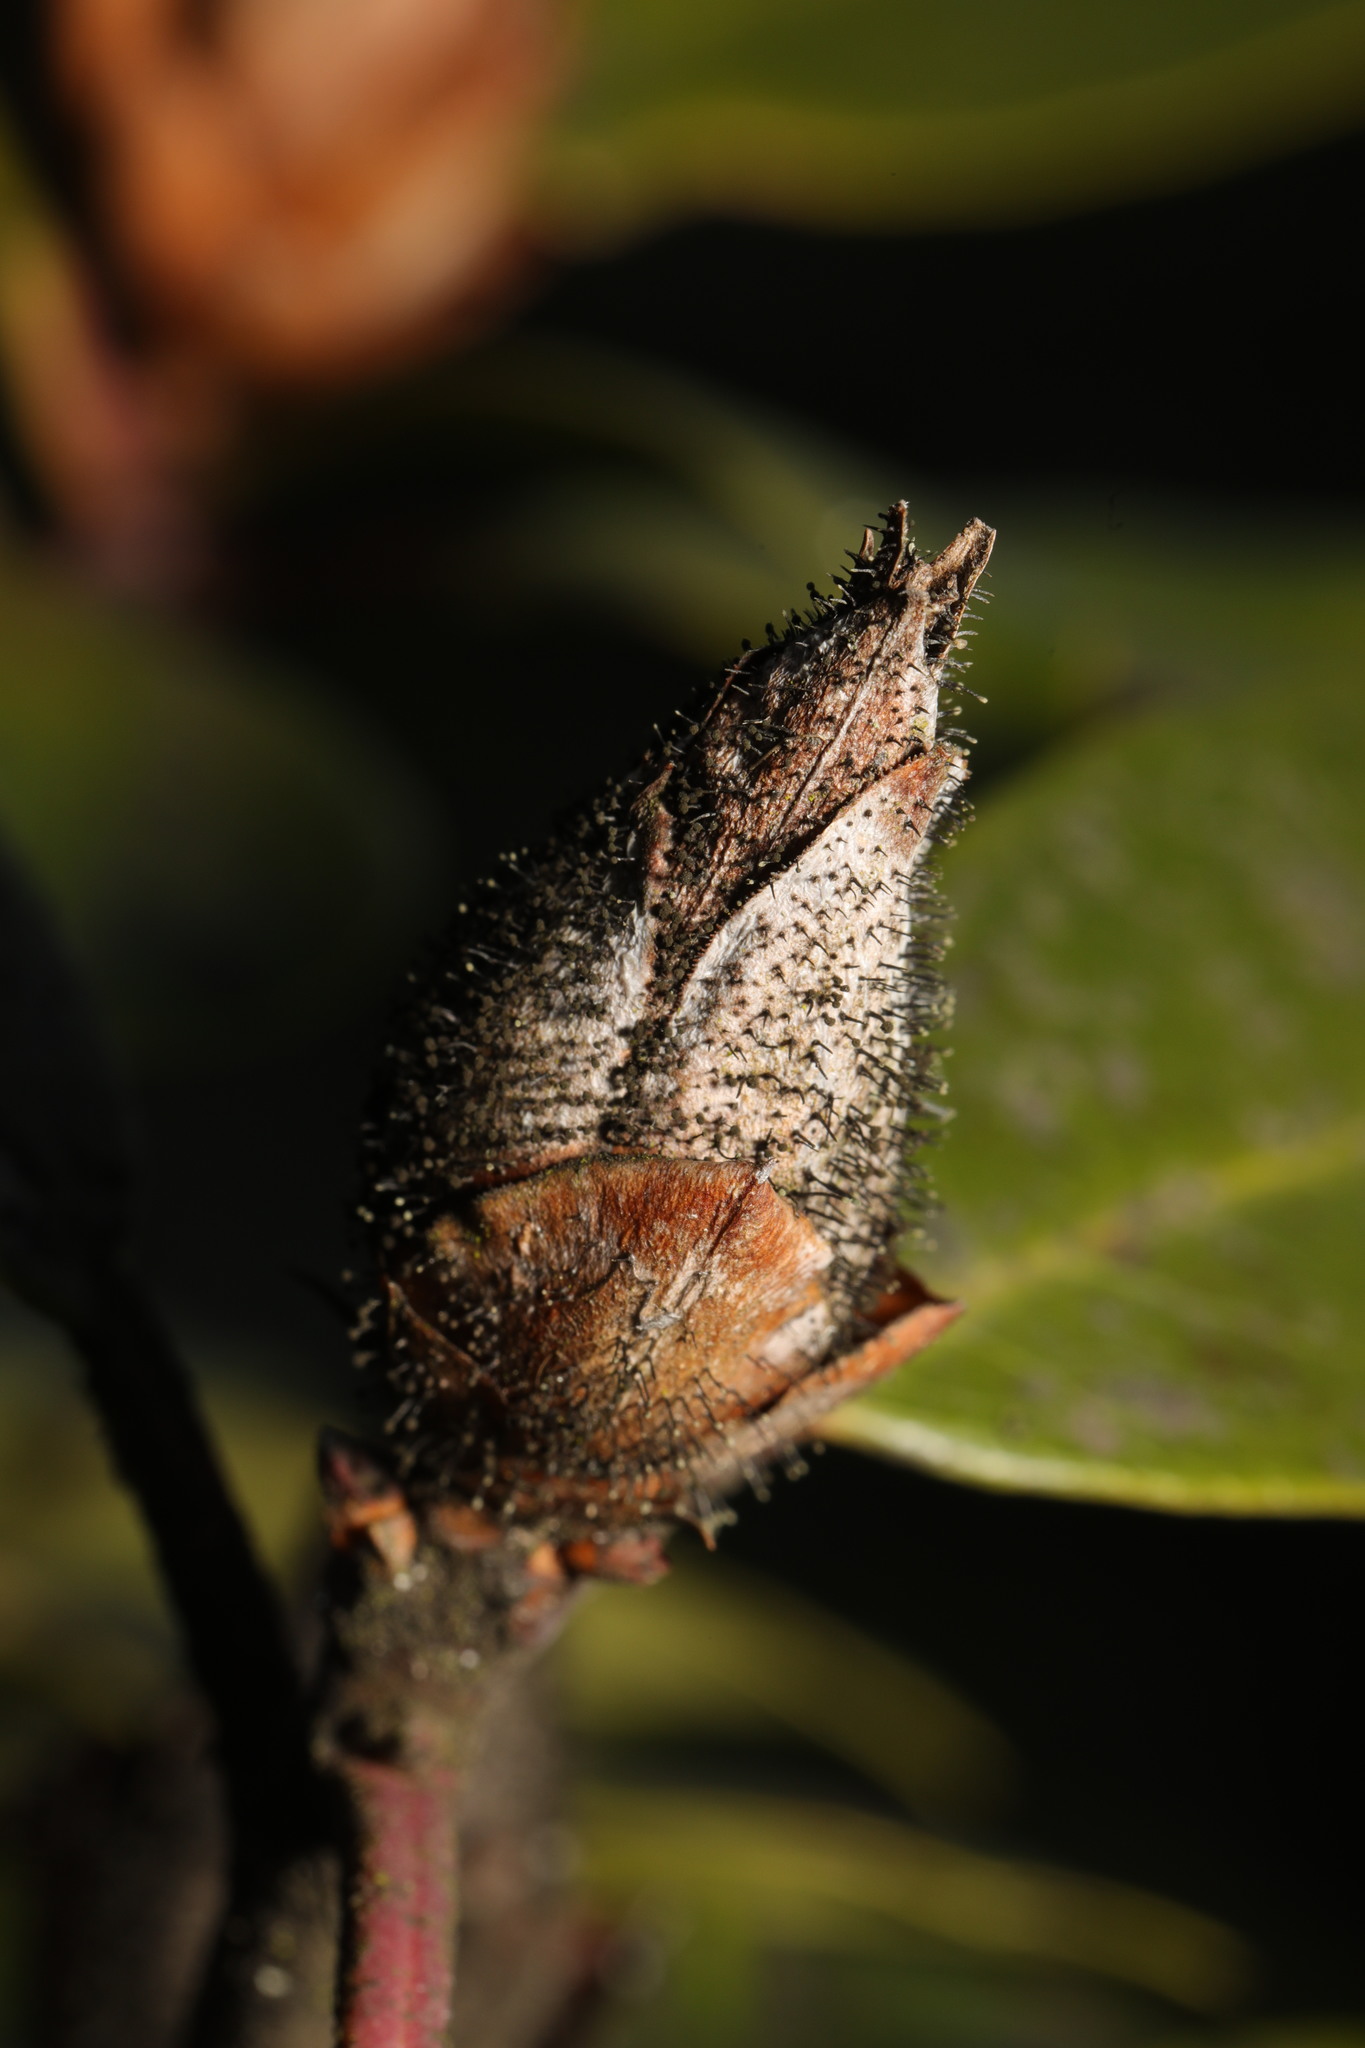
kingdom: Fungi
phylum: Ascomycota
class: Dothideomycetes
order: Pleosporales
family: Melanommataceae
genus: Seifertia
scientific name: Seifertia azaleae
